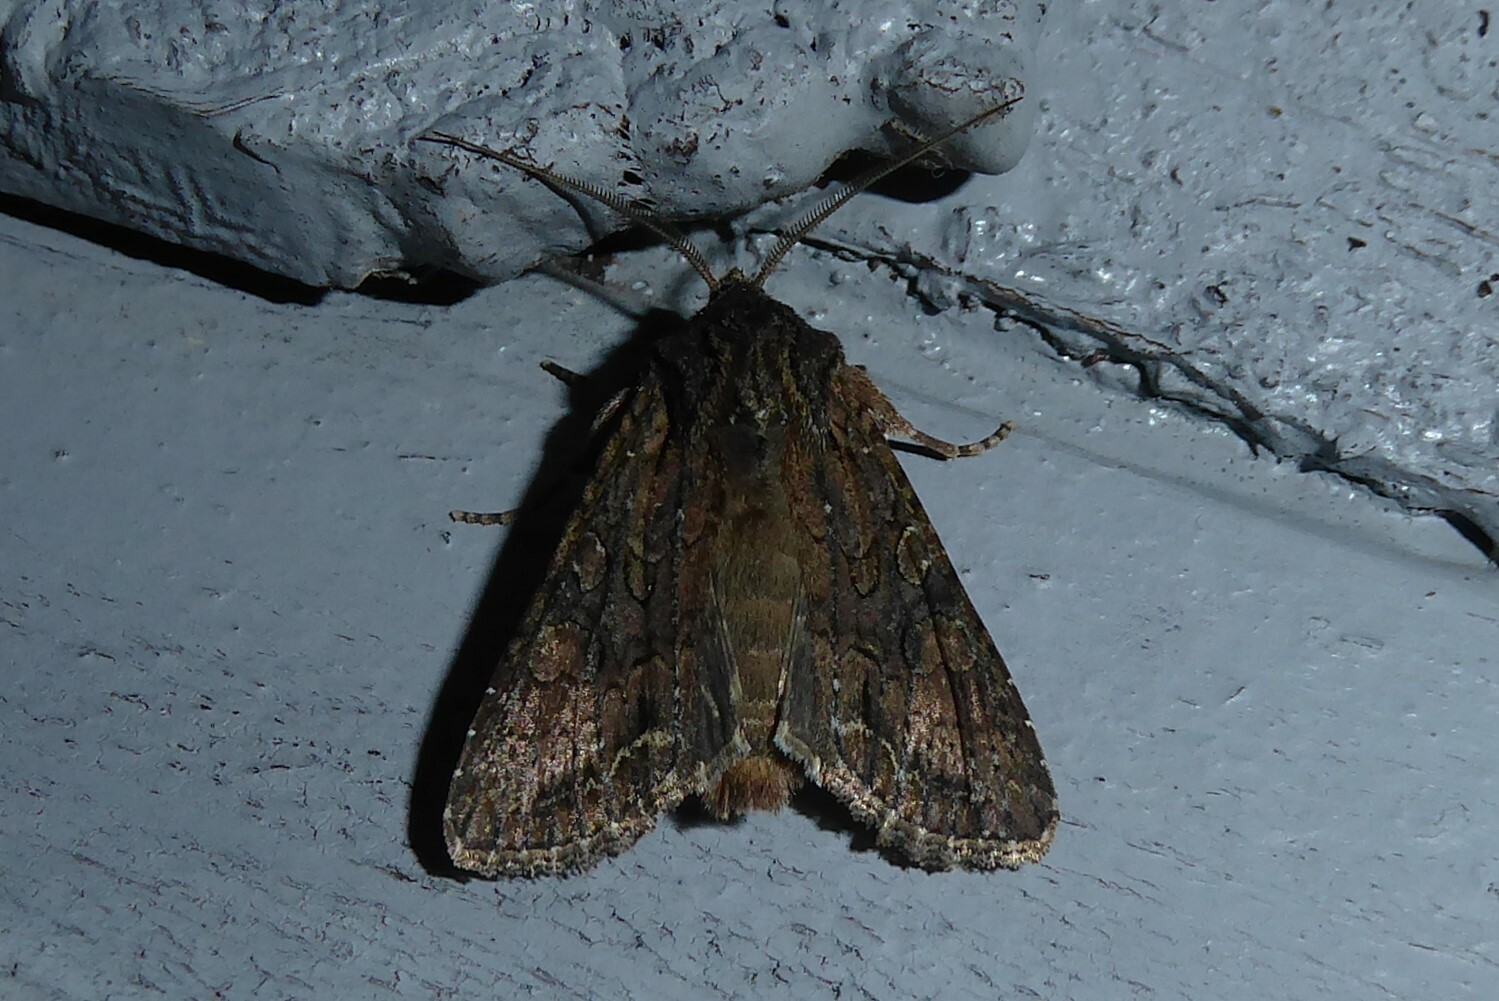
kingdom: Animalia
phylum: Arthropoda
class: Insecta
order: Lepidoptera
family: Noctuidae
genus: Ichneutica
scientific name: Ichneutica mutans
